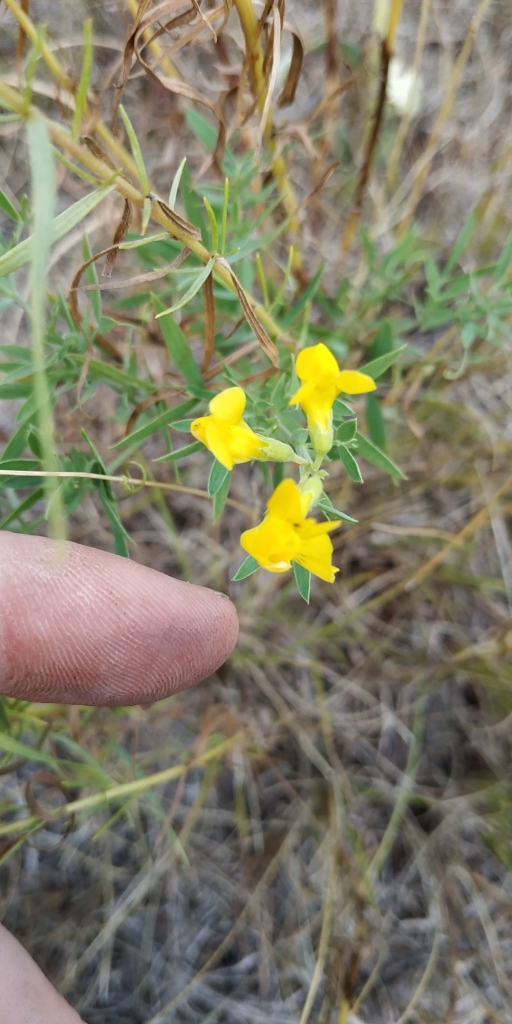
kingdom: Plantae
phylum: Tracheophyta
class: Magnoliopsida
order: Fabales
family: Fabaceae
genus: Lathyrus
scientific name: Lathyrus pratensis
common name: Meadow vetchling
